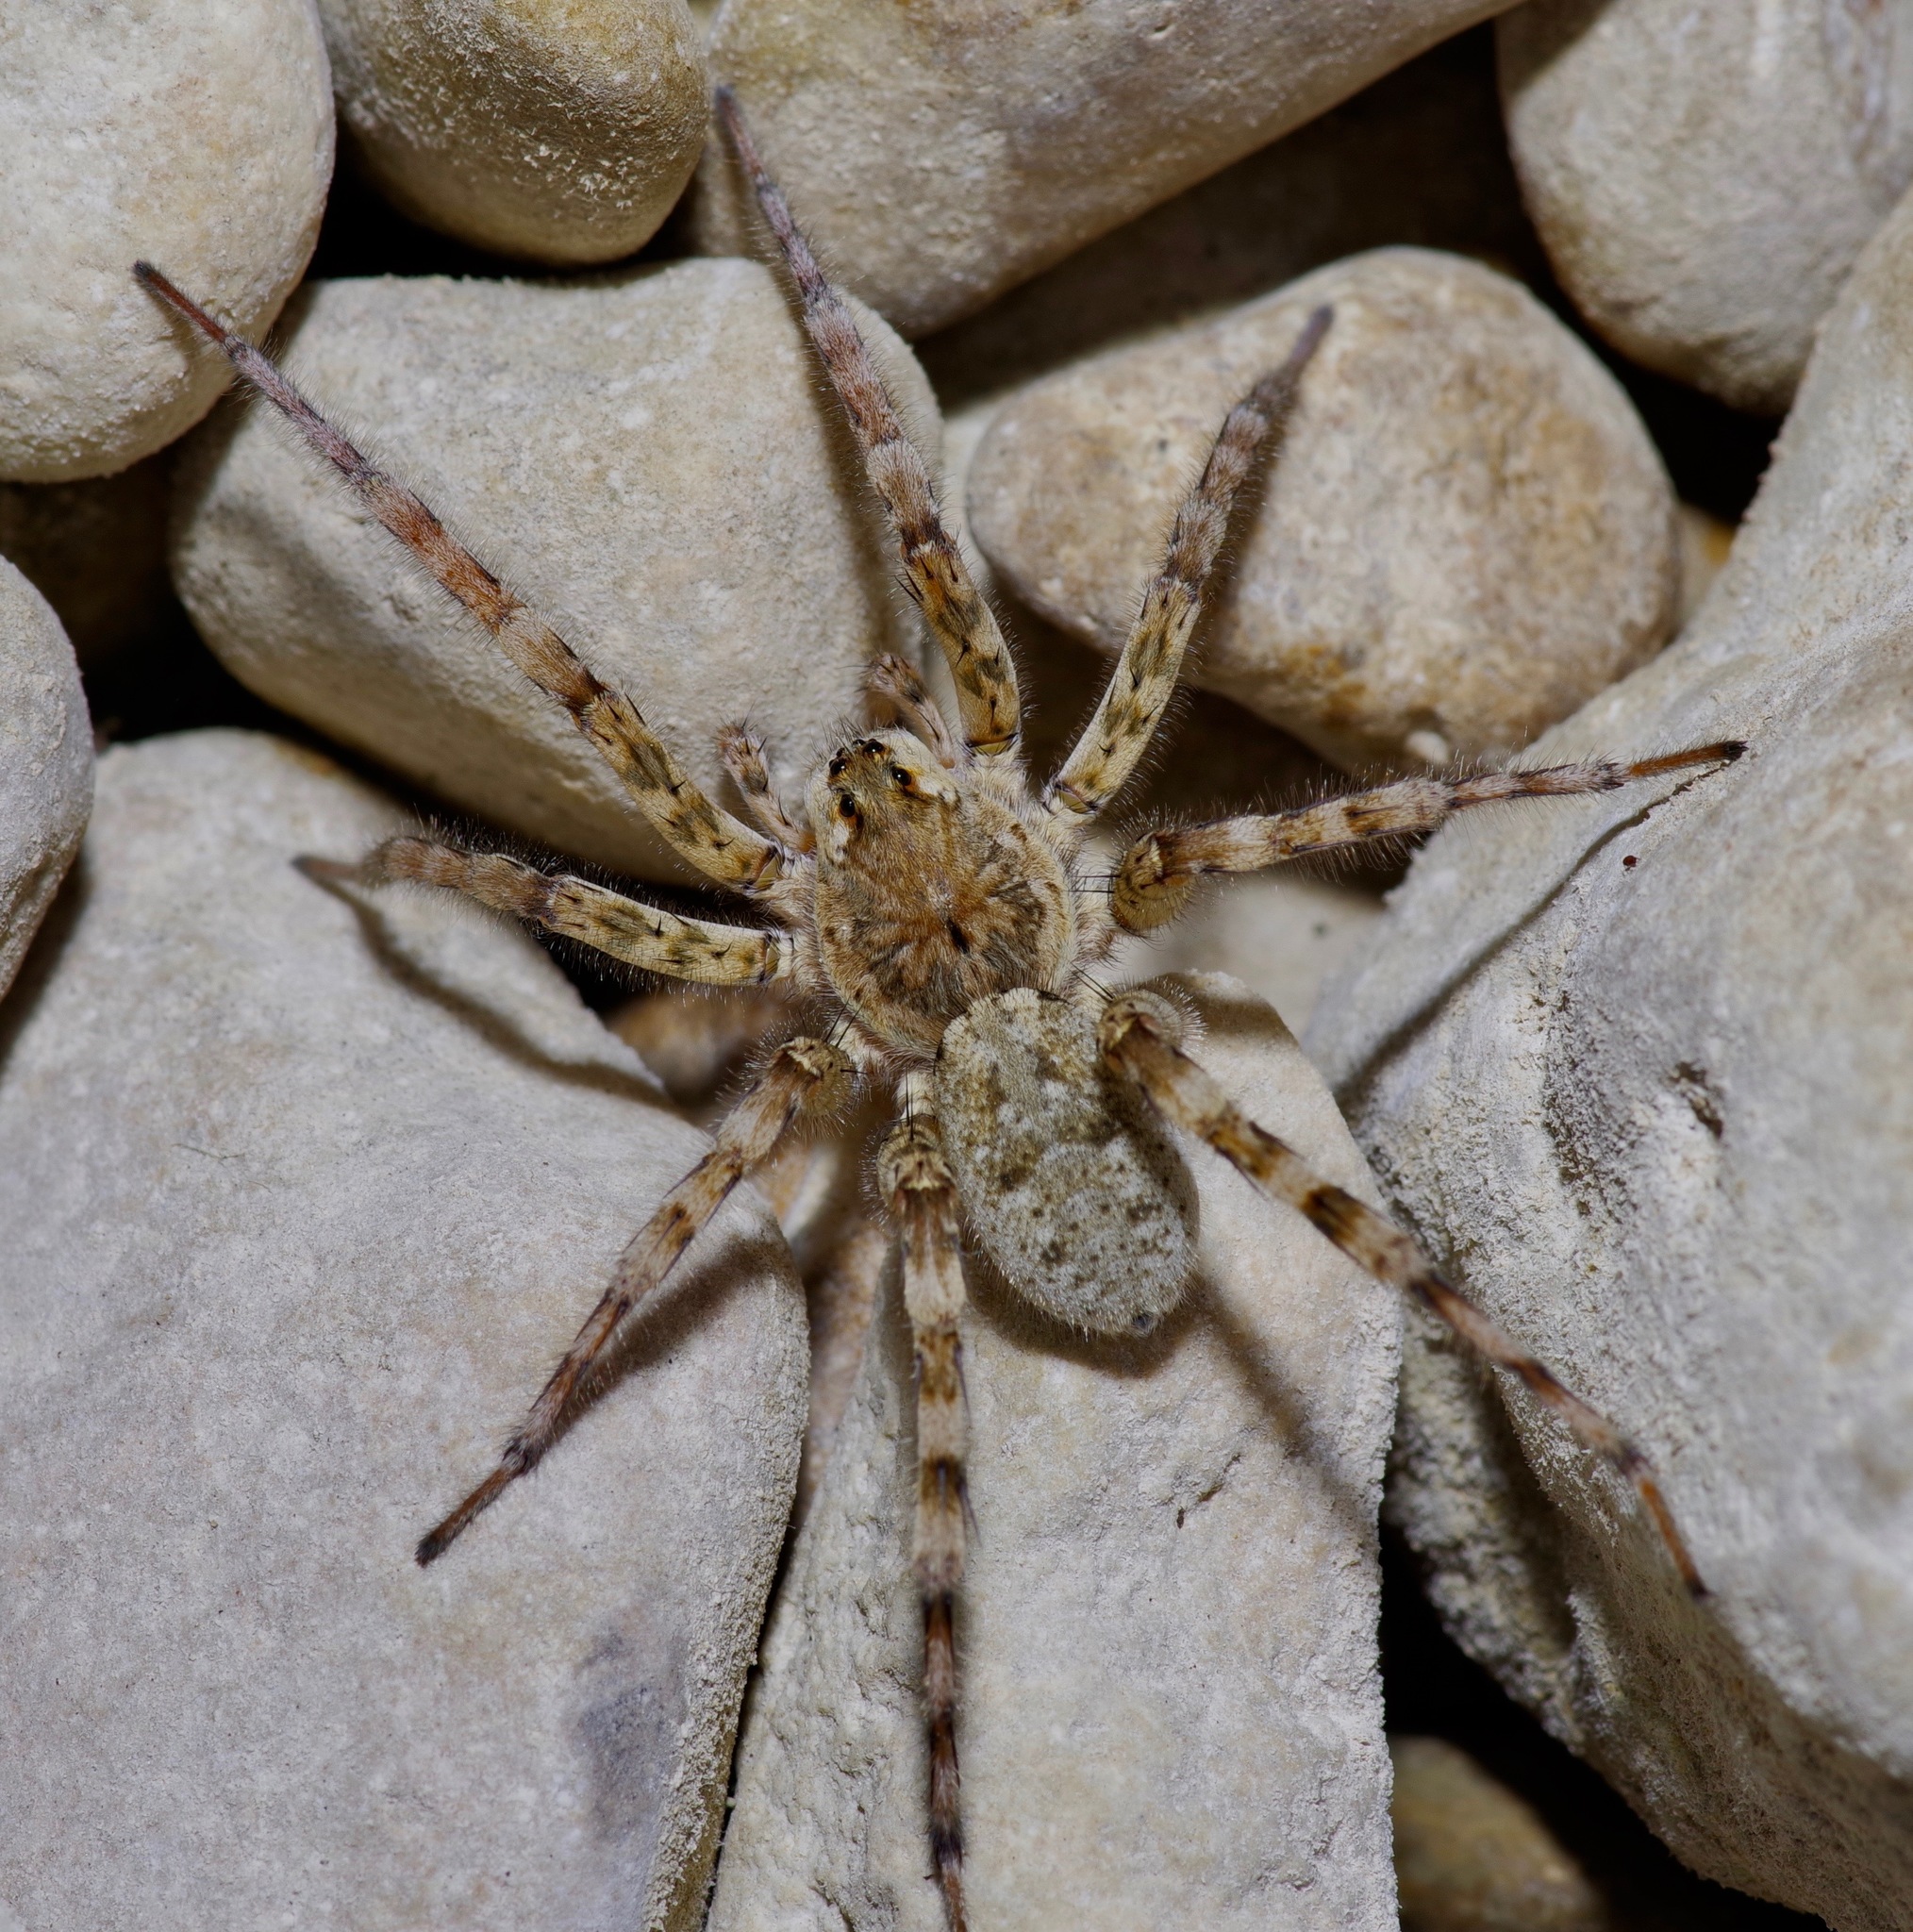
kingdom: Animalia
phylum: Arthropoda
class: Arachnida
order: Araneae
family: Lycosidae
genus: Arctosa
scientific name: Arctosa littoralis
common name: Wolf spiders
